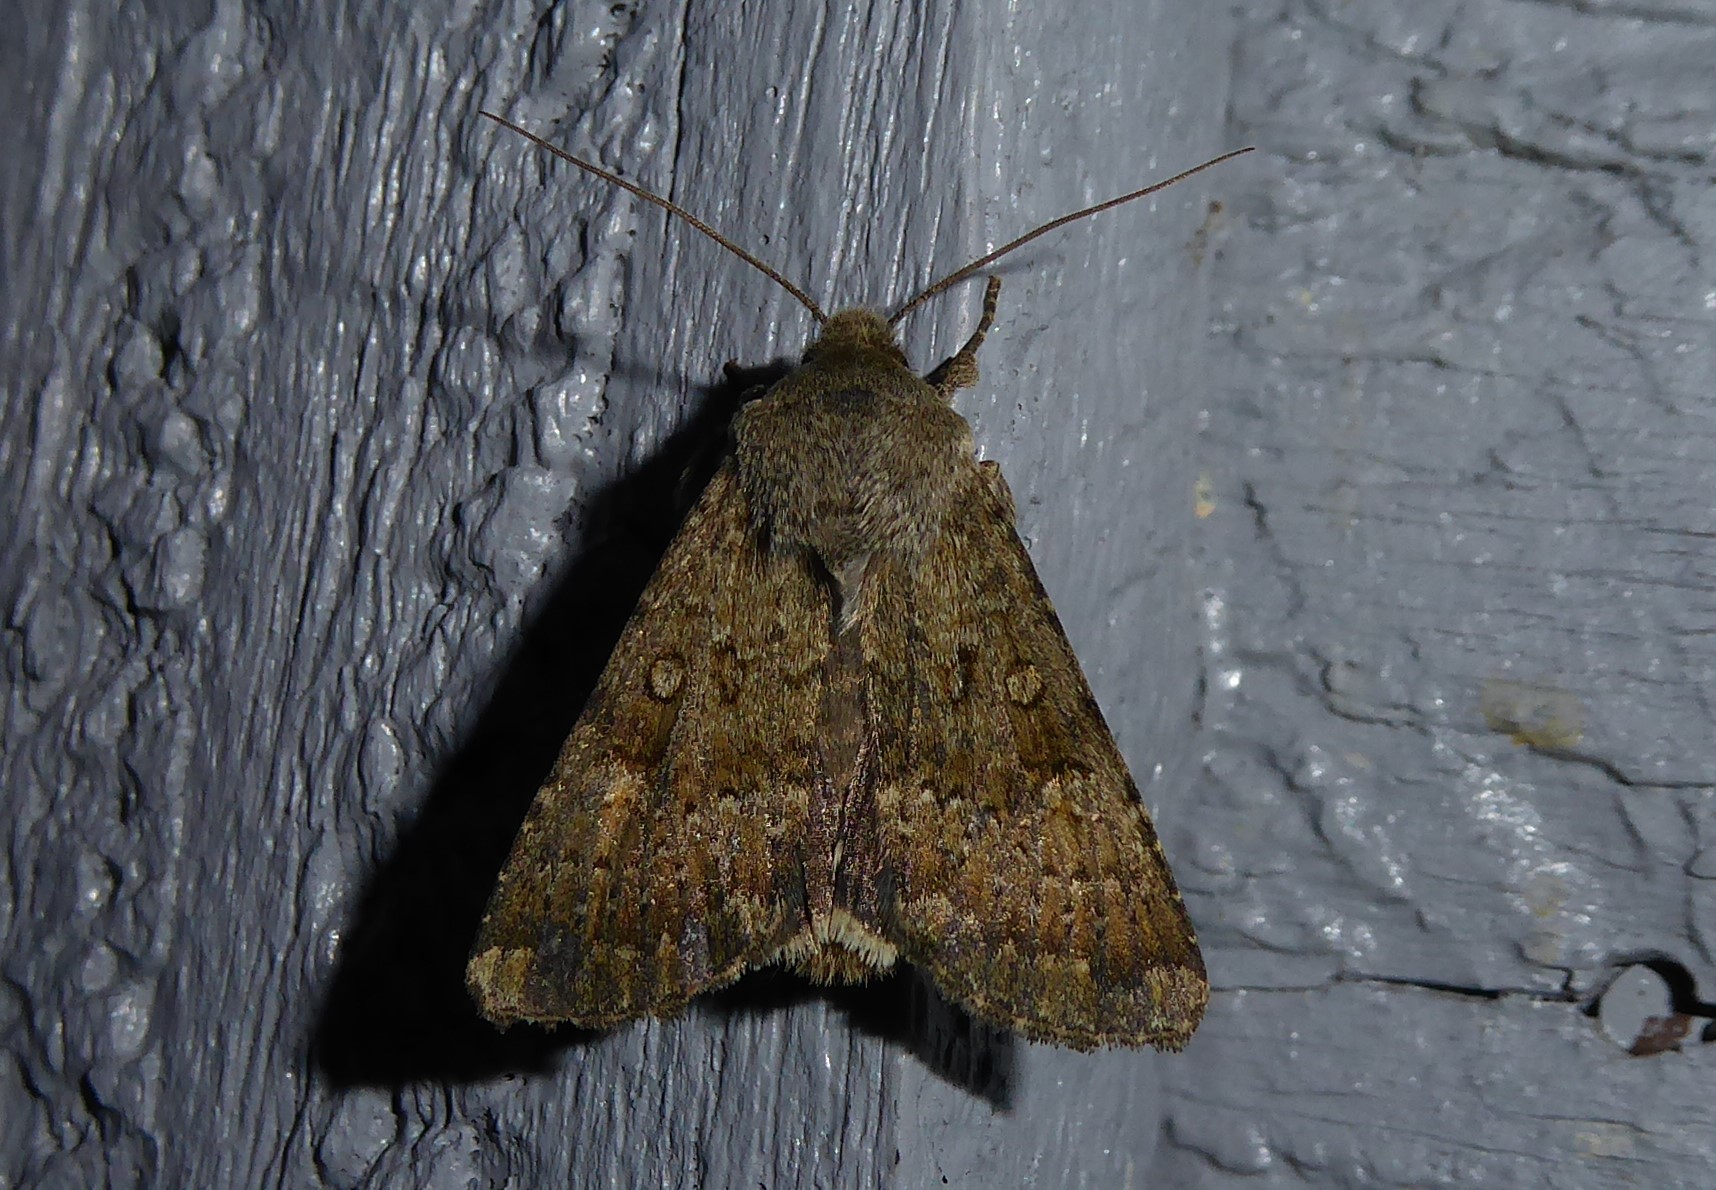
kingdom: Animalia
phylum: Arthropoda
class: Insecta
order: Lepidoptera
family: Noctuidae
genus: Ichneutica
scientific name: Ichneutica moderata
